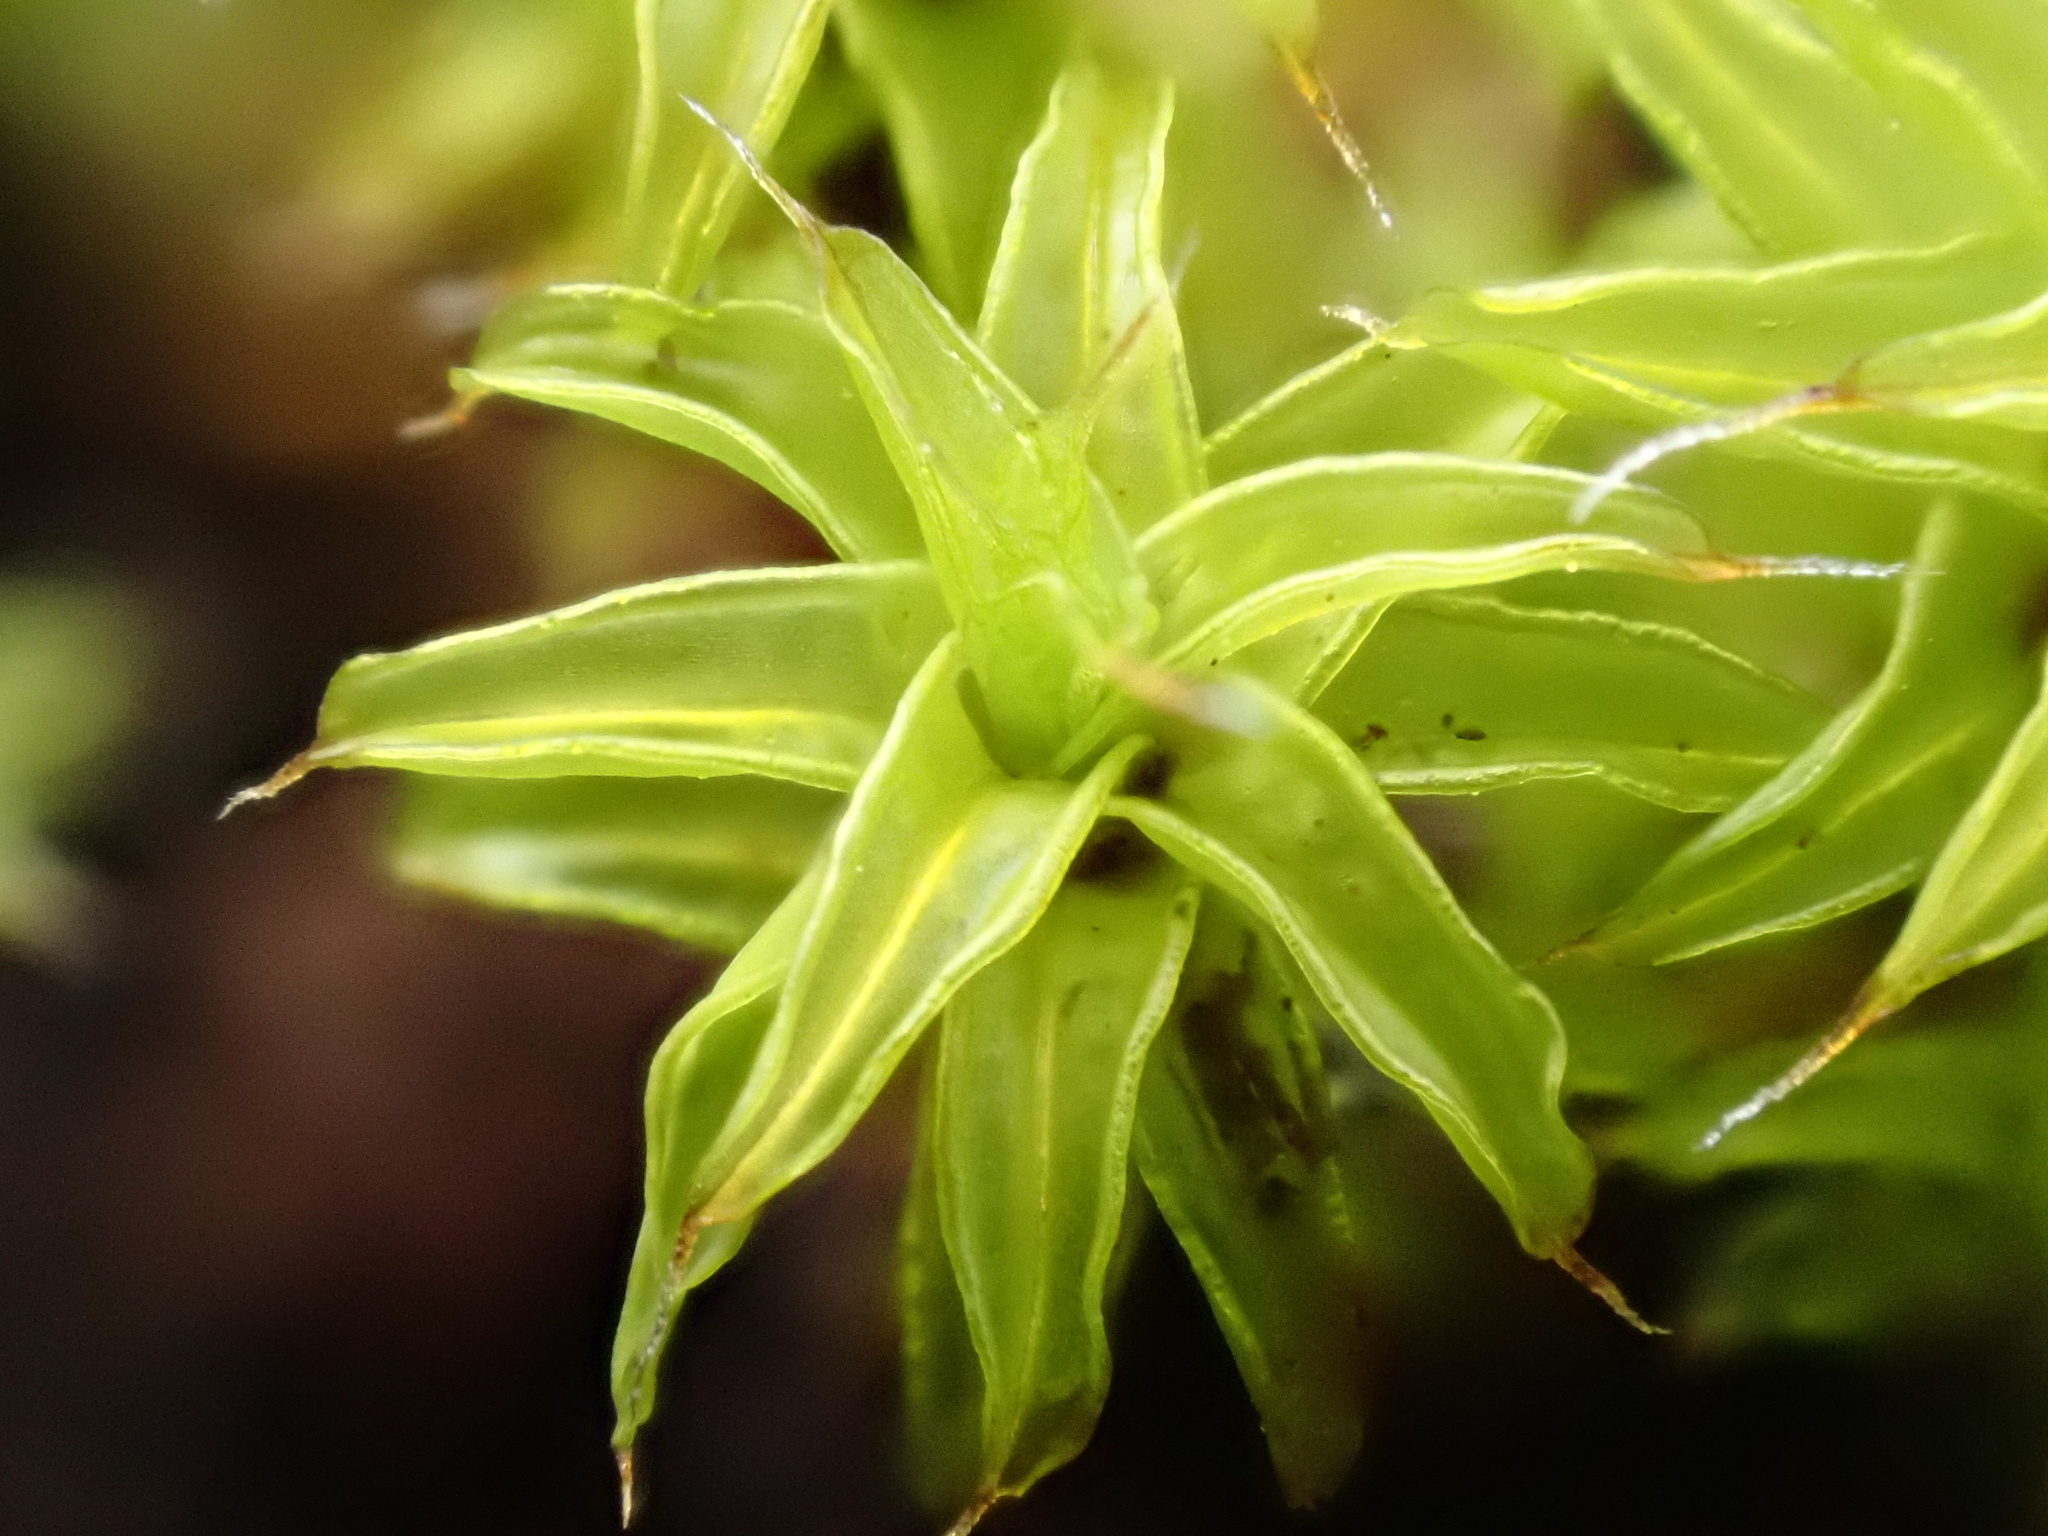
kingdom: Plantae
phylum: Bryophyta
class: Bryopsida
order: Pottiales
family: Pottiaceae
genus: Syntrichia
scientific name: Syntrichia ruralis
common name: Sidewalk screw moss
